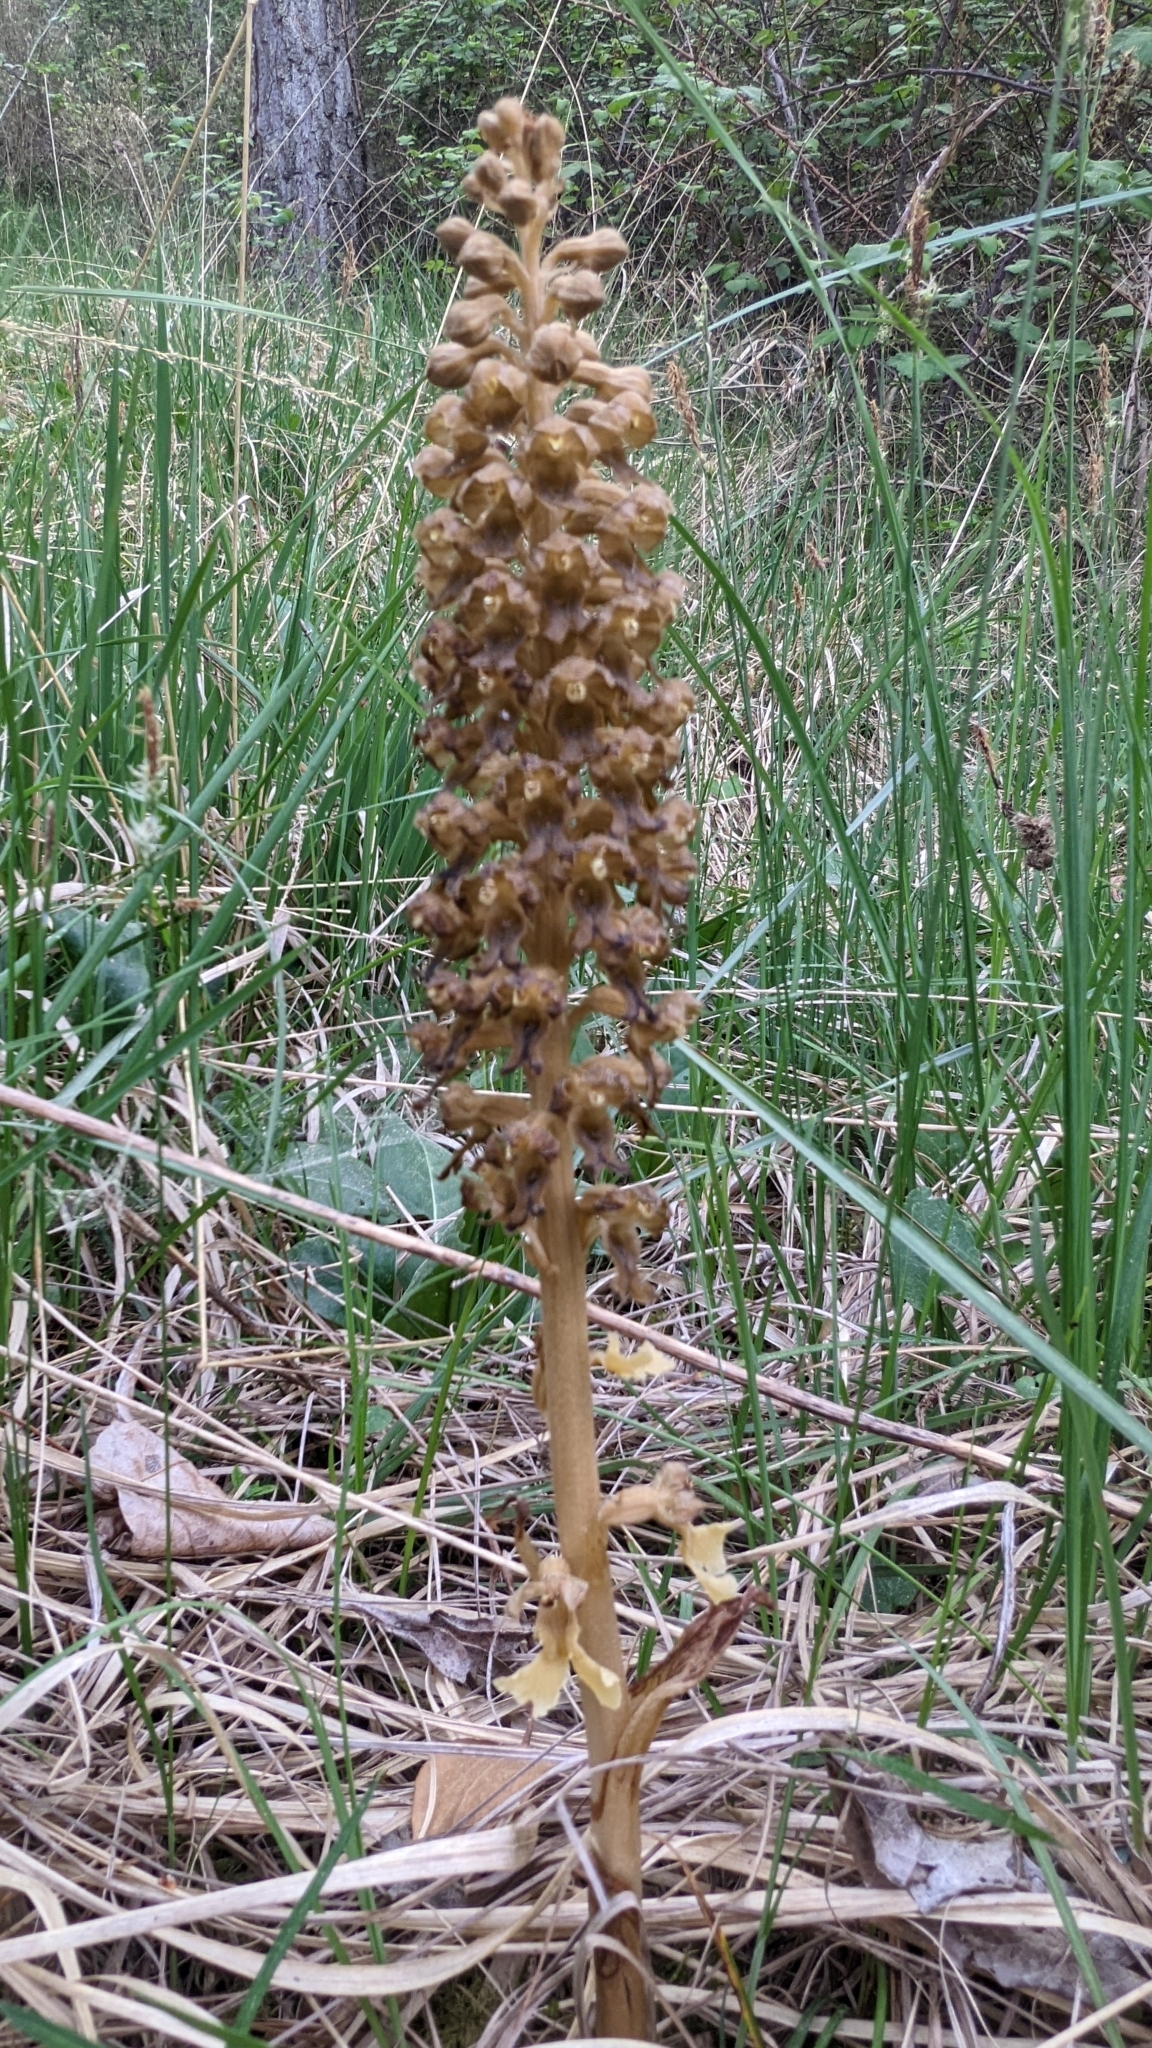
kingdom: Plantae
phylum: Tracheophyta
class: Liliopsida
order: Asparagales
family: Orchidaceae
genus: Neottia
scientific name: Neottia nidus-avis
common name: Bird's-nest orchid
